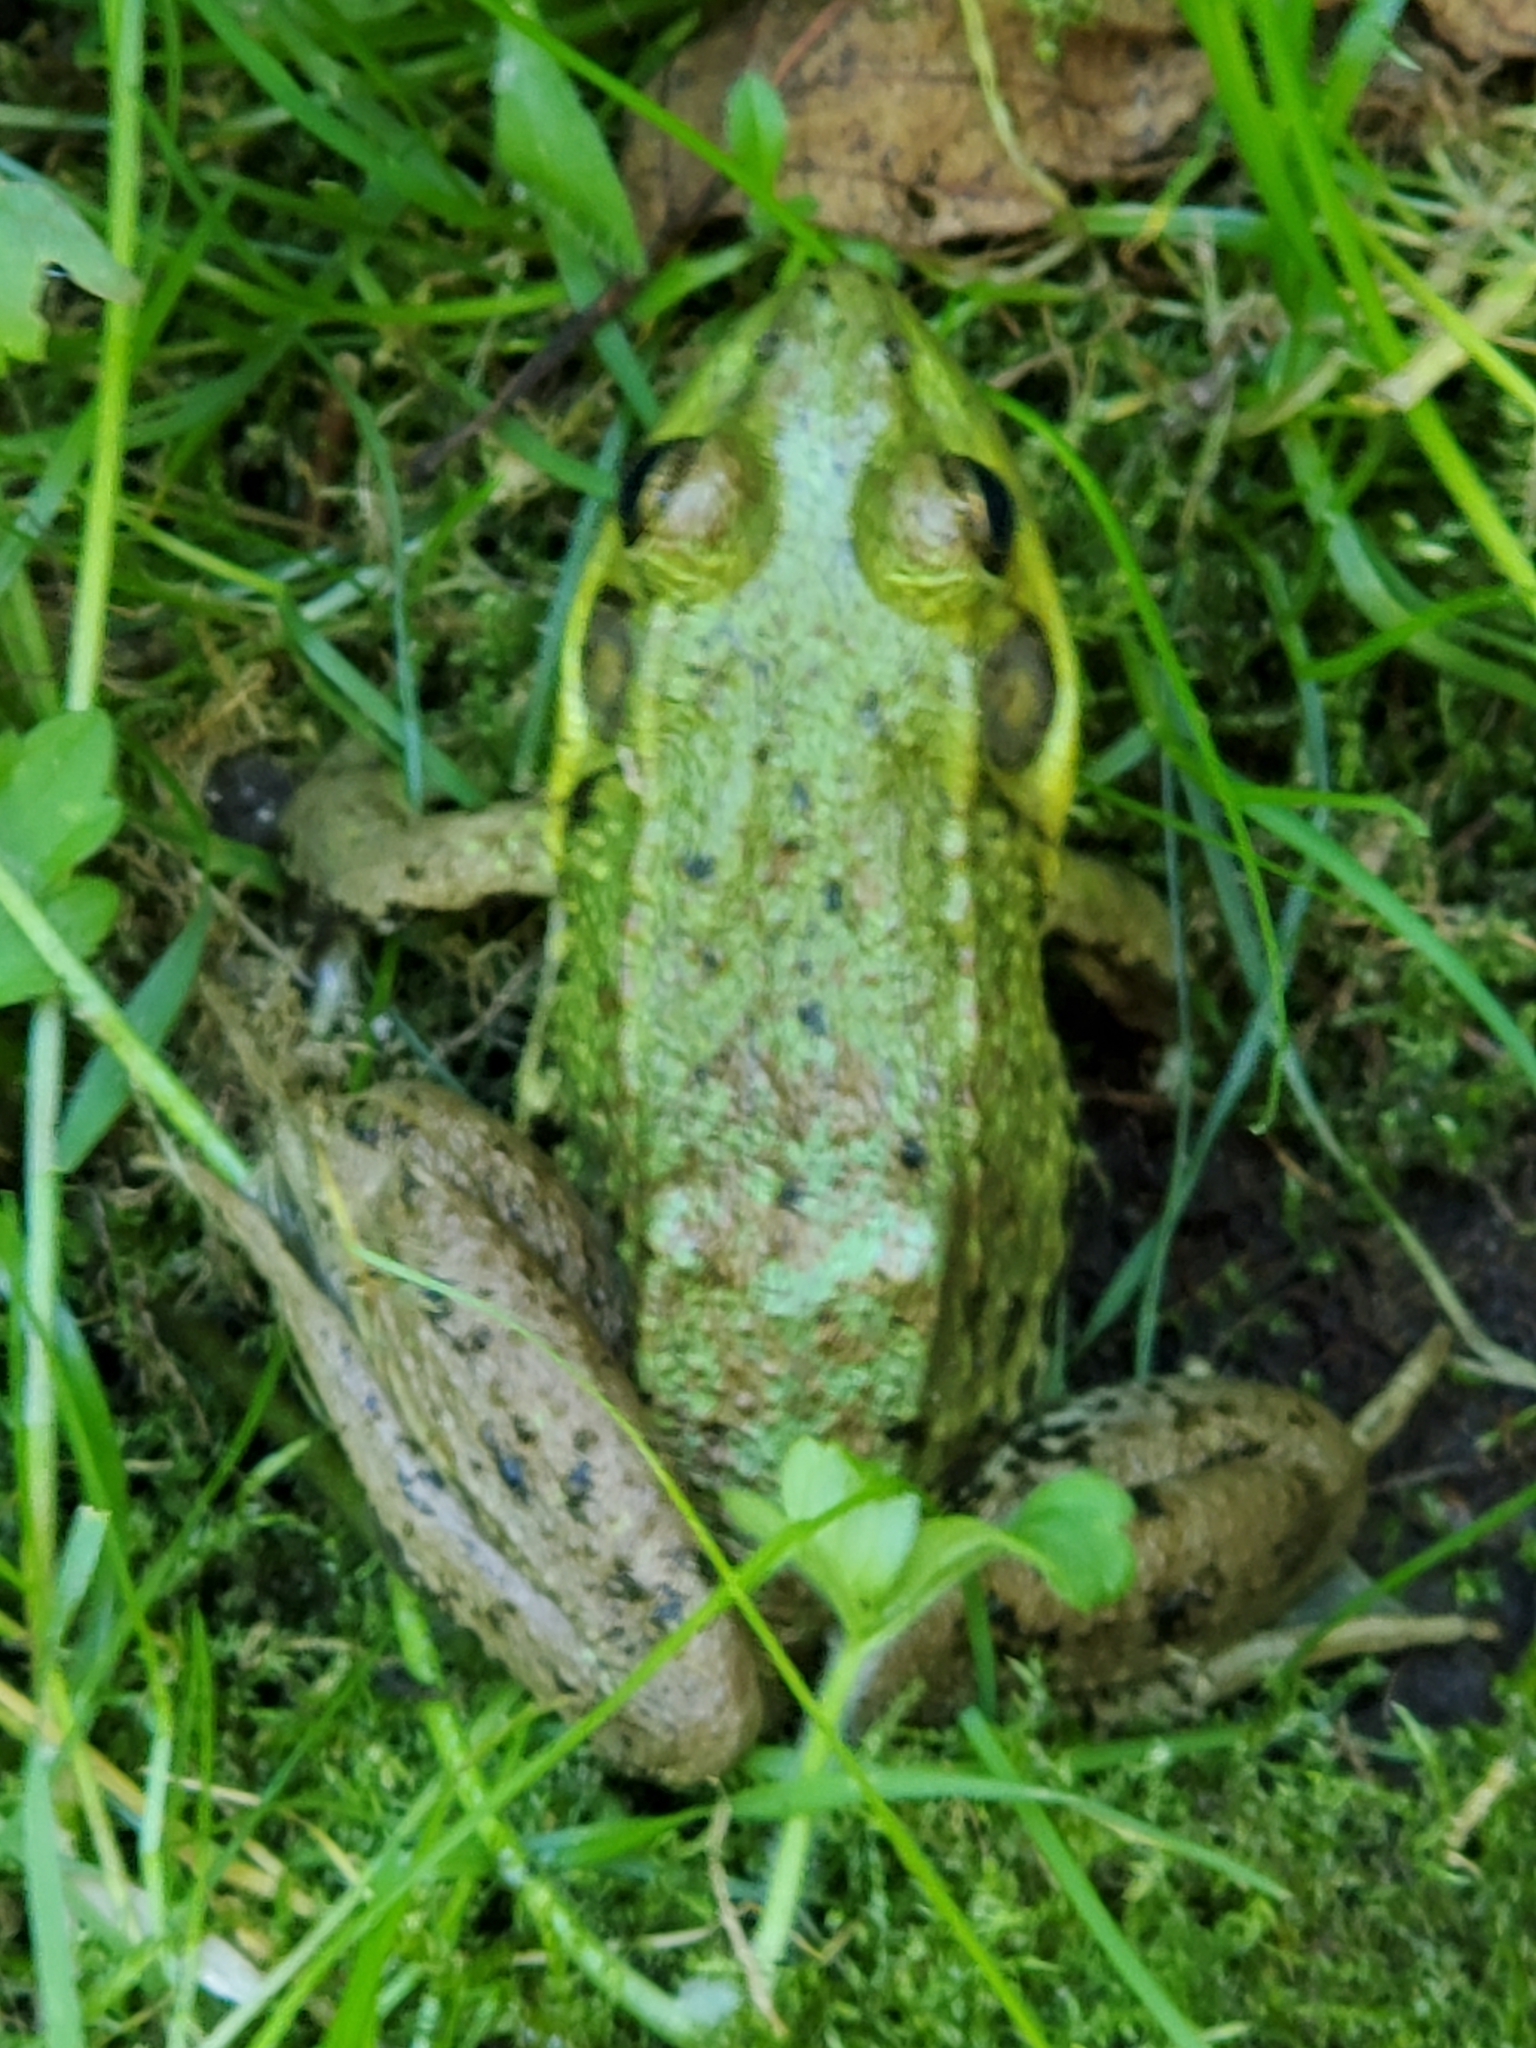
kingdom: Animalia
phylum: Chordata
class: Amphibia
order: Anura
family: Ranidae
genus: Lithobates
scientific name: Lithobates clamitans
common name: Green frog
